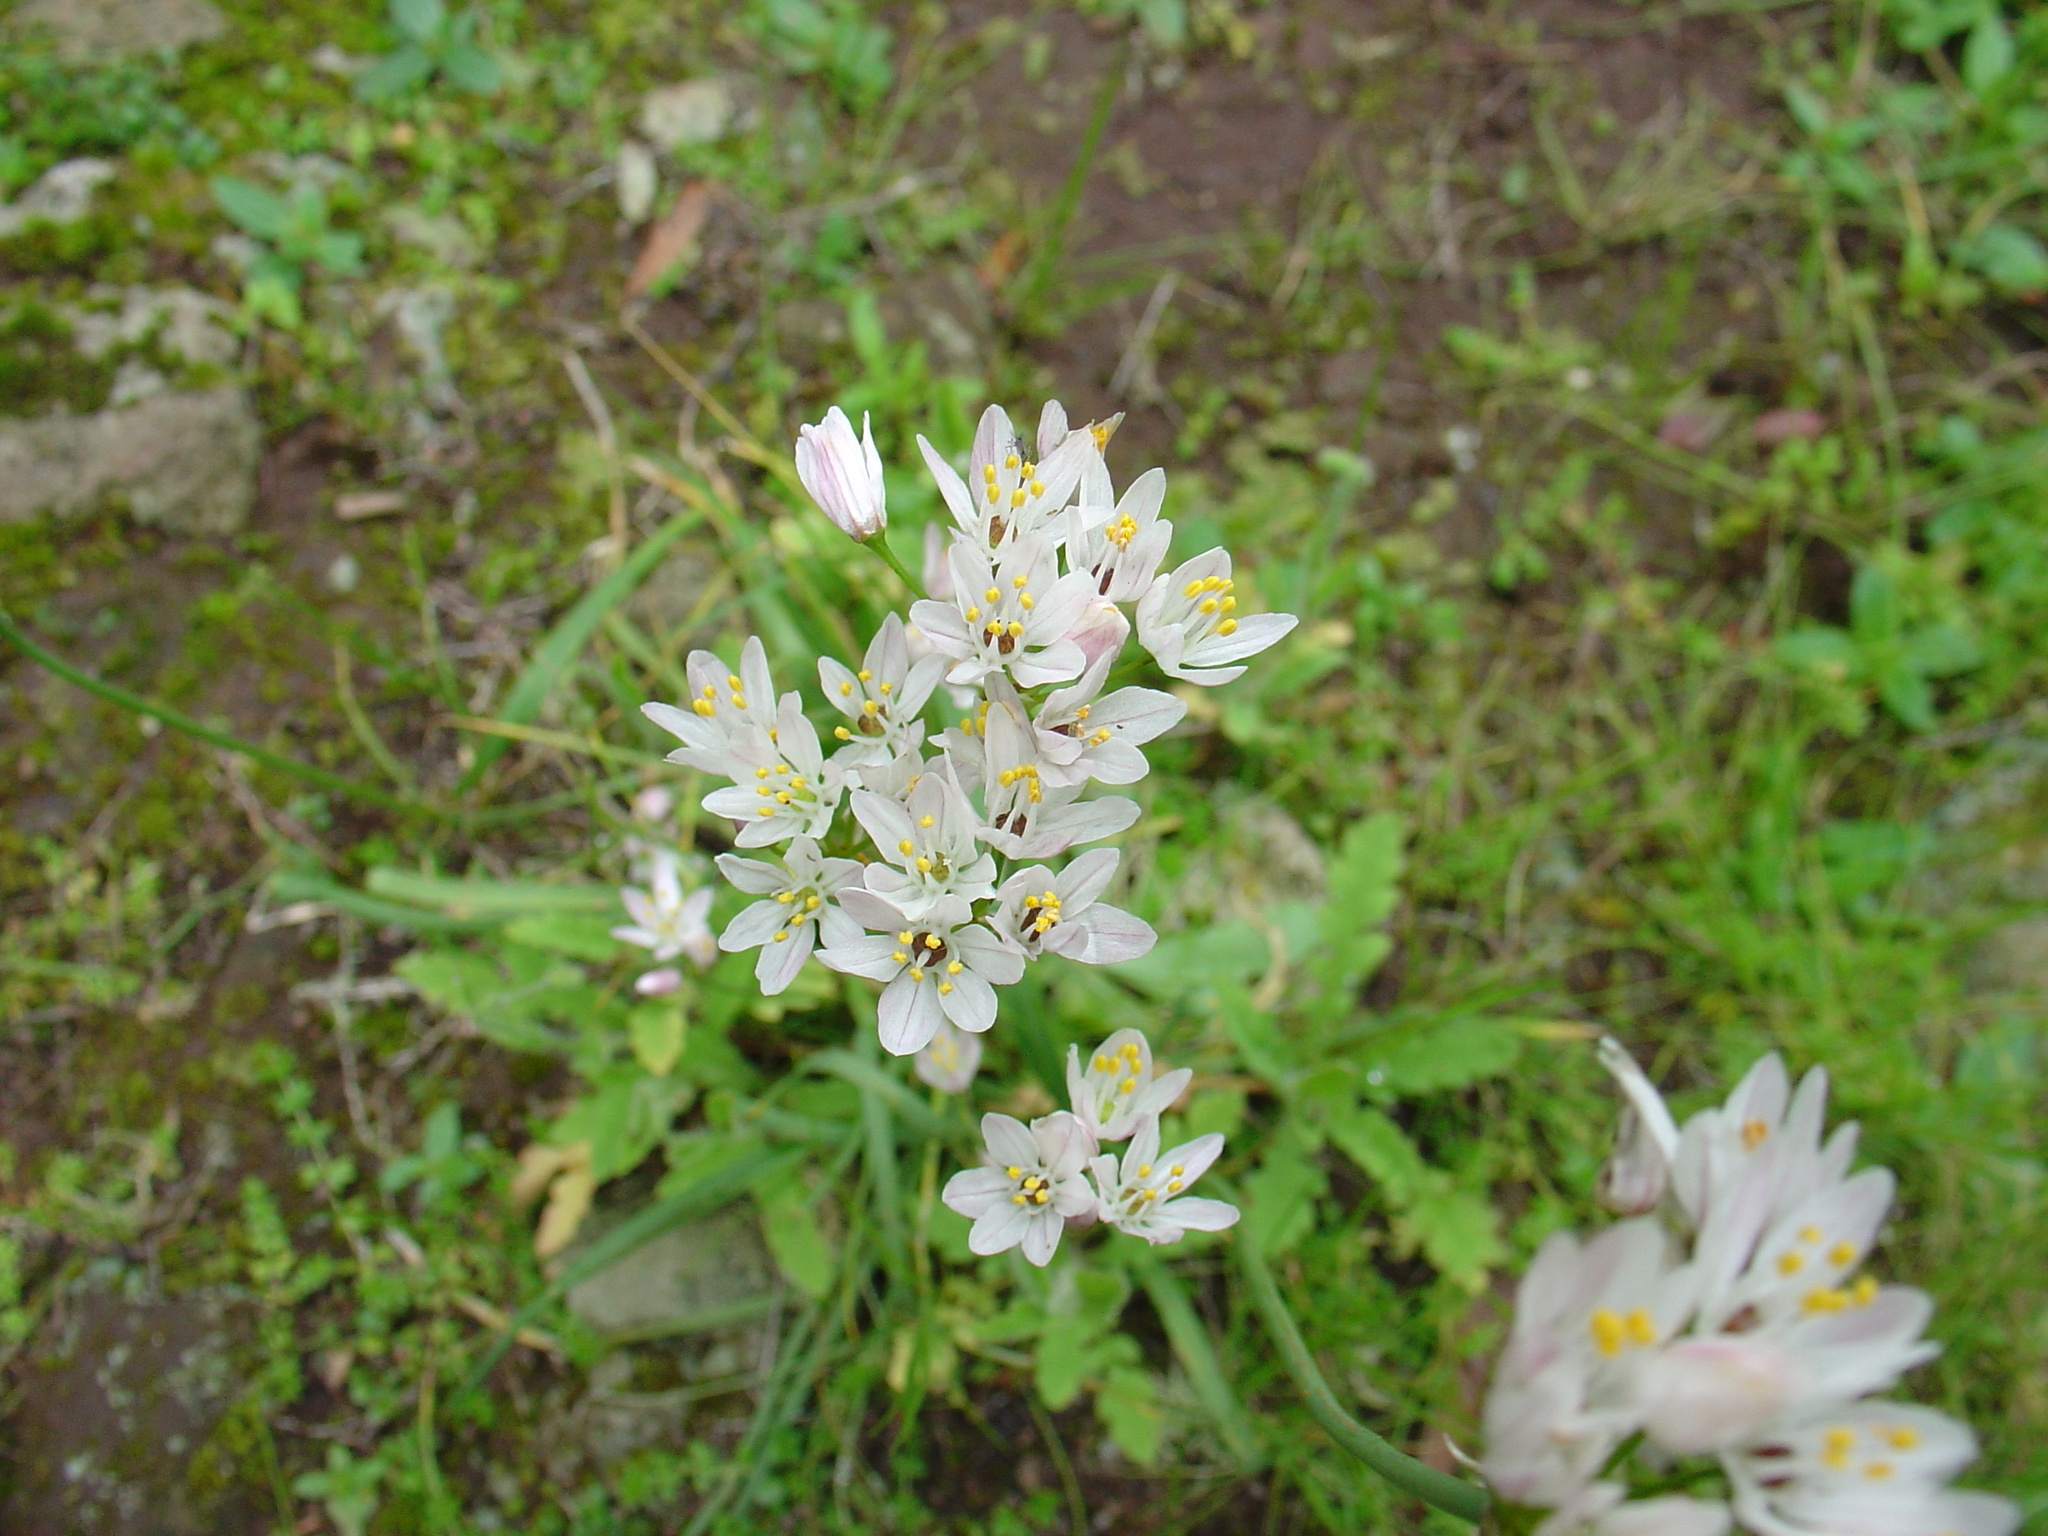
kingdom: Plantae
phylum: Tracheophyta
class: Liliopsida
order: Asparagales
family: Amaryllidaceae
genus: Allium
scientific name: Allium canariense
